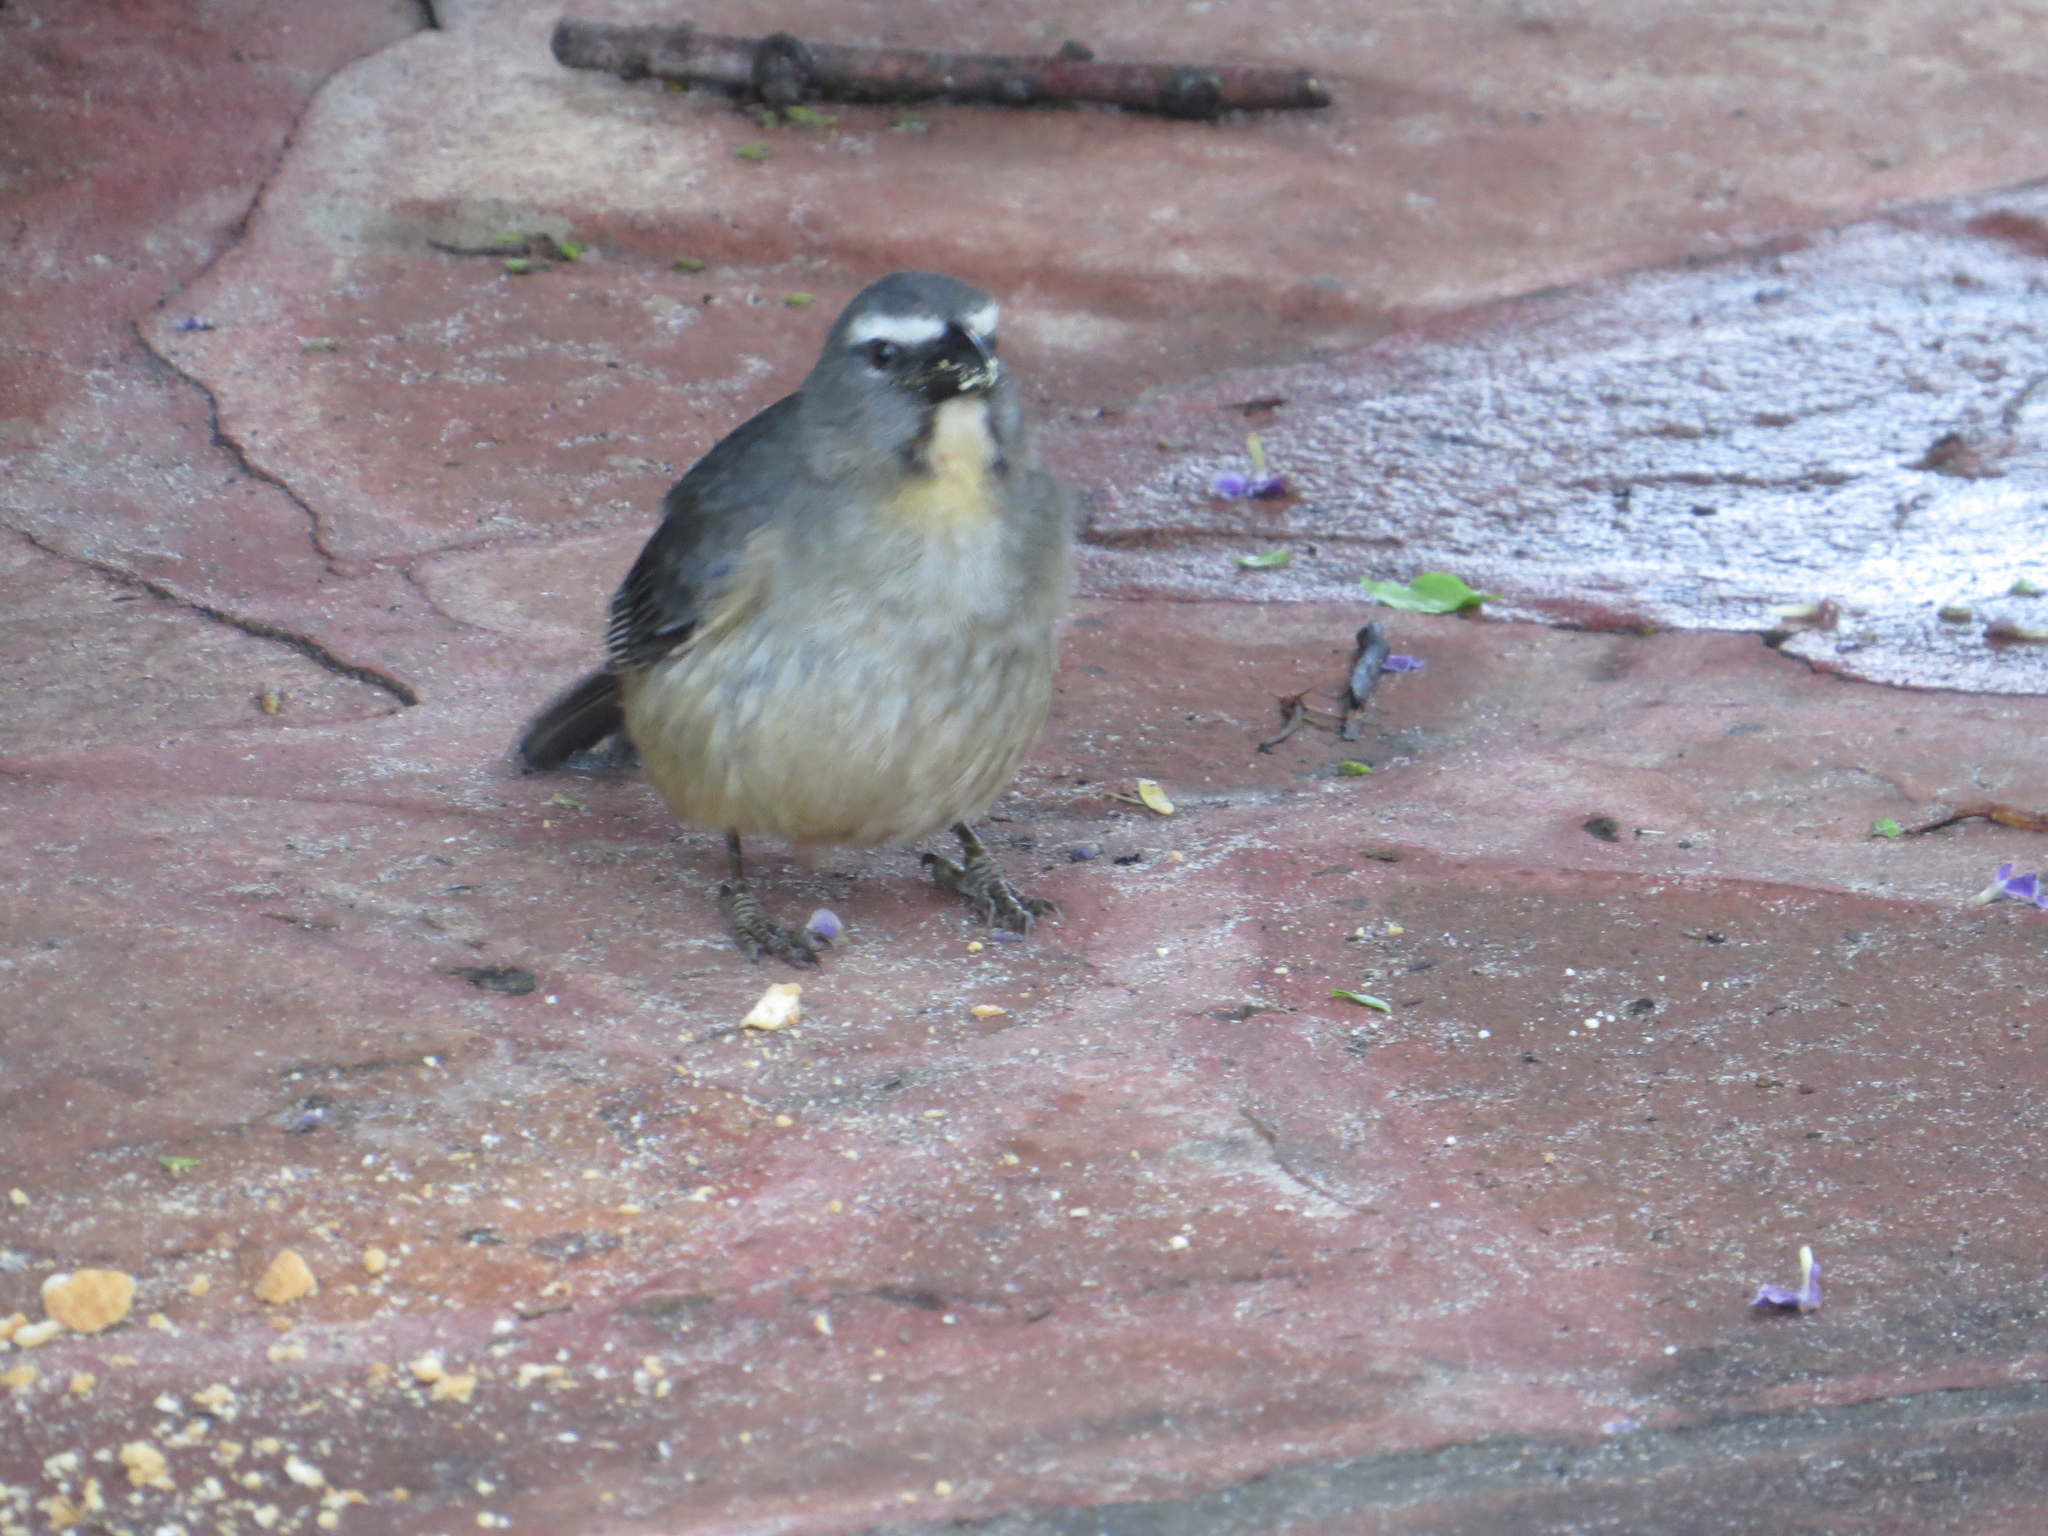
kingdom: Animalia
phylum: Chordata
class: Aves
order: Passeriformes
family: Thraupidae
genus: Saltator
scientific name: Saltator coerulescens
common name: Grayish saltator
